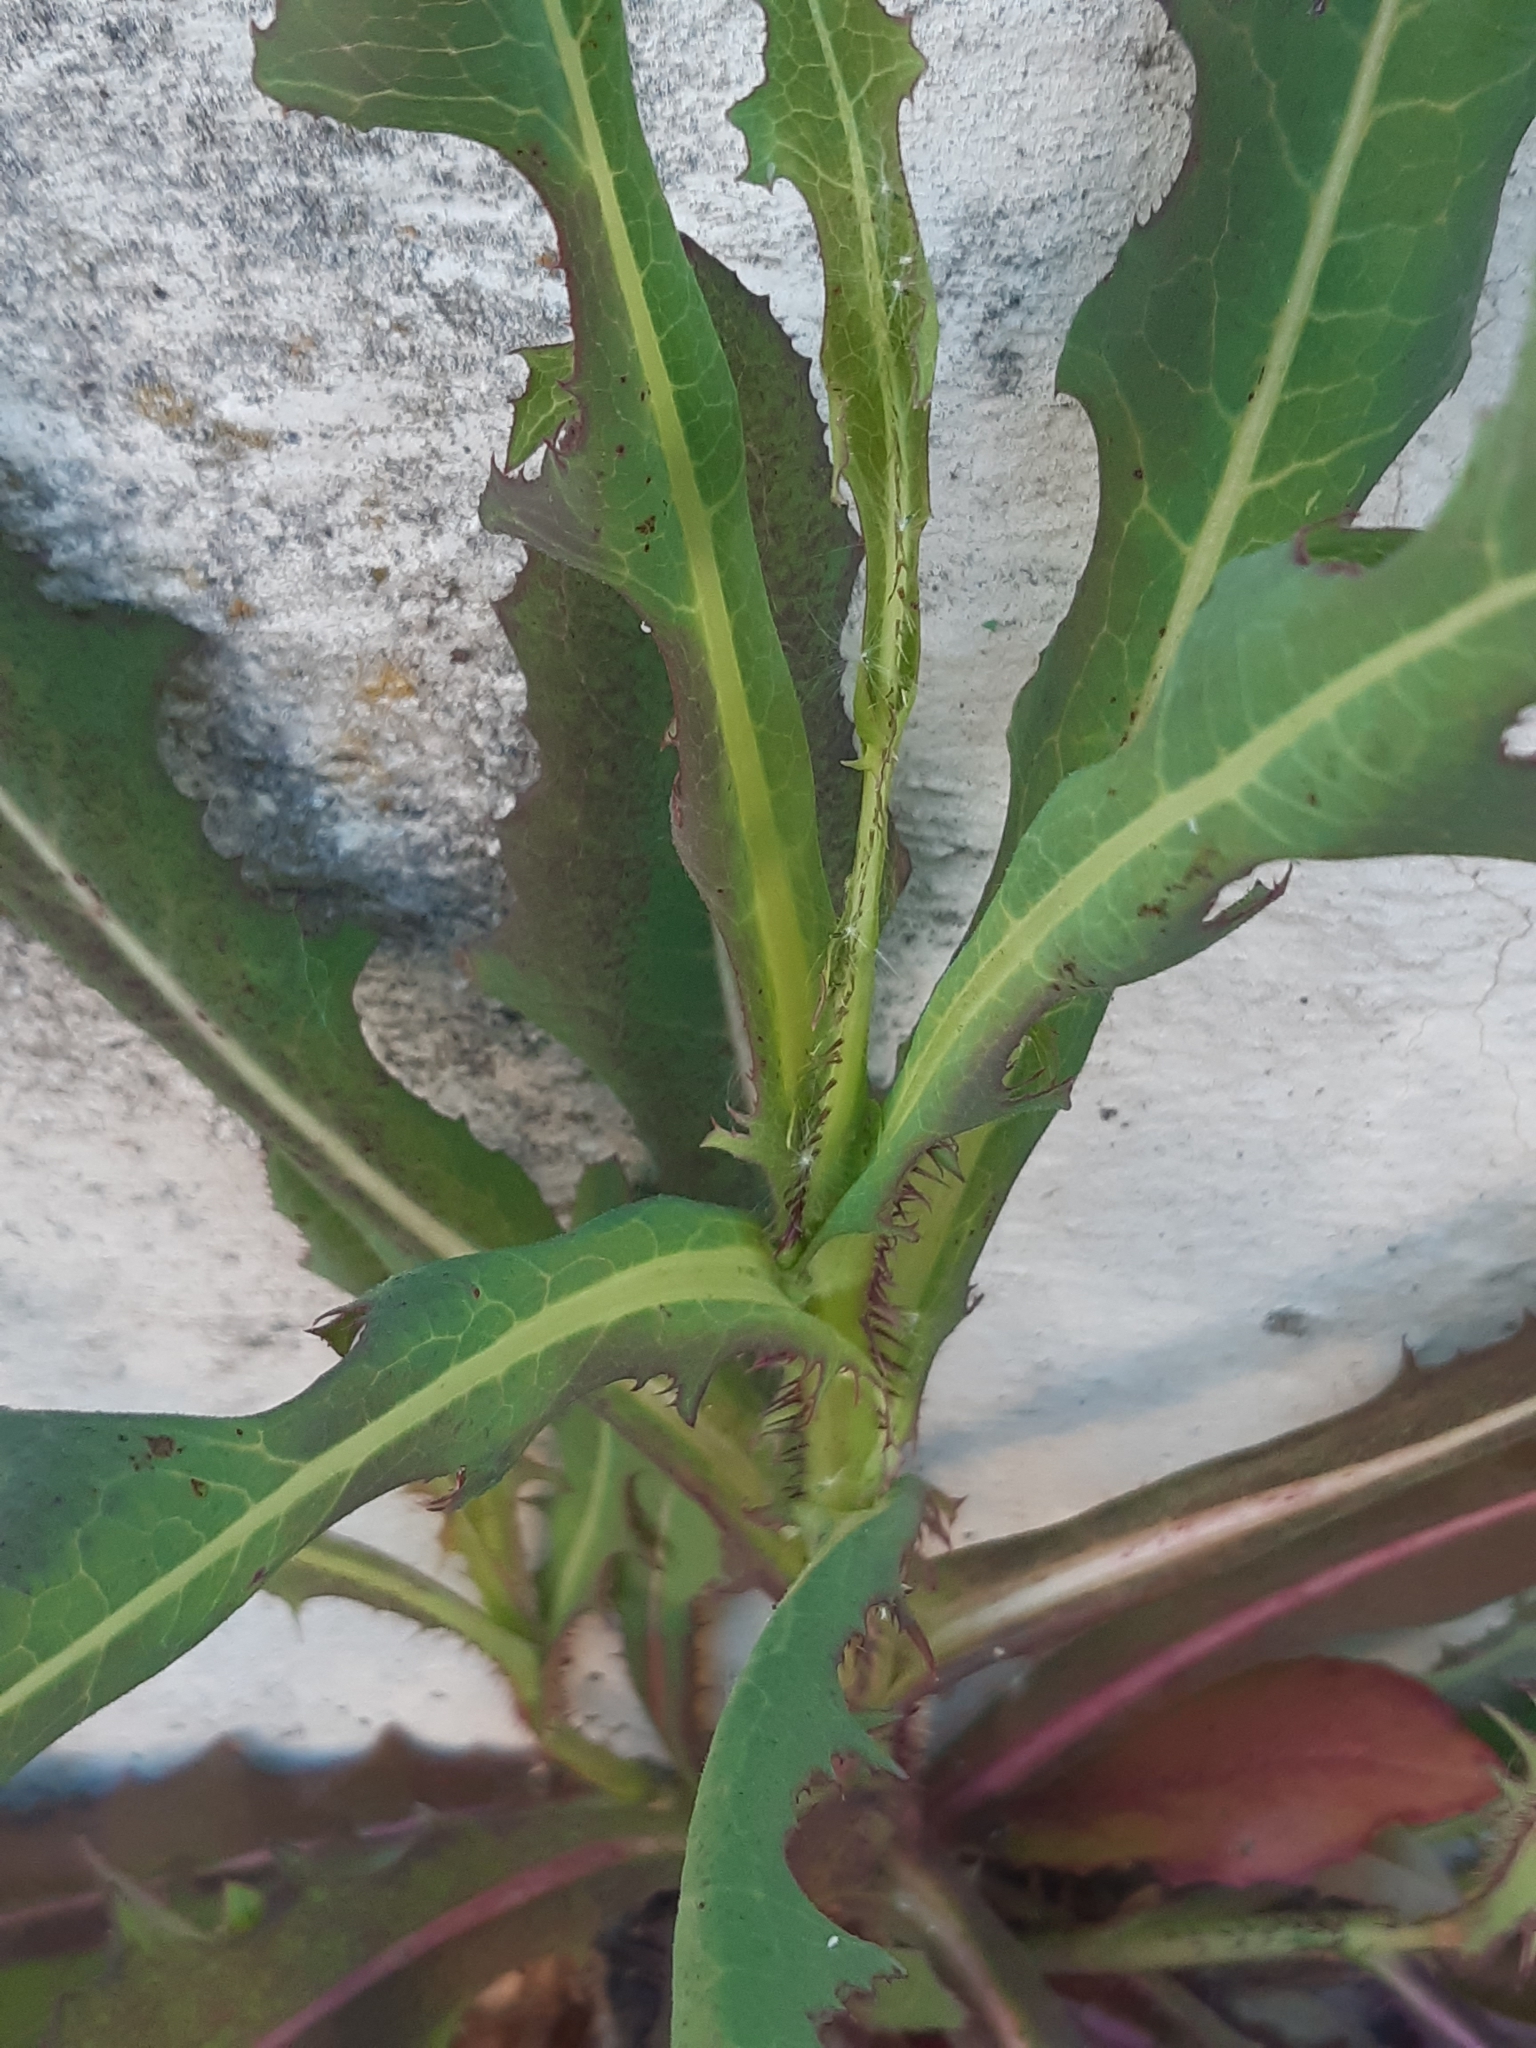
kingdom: Plantae
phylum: Tracheophyta
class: Magnoliopsida
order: Asterales
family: Asteraceae
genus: Lactuca
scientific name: Lactuca serriola
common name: Prickly lettuce
